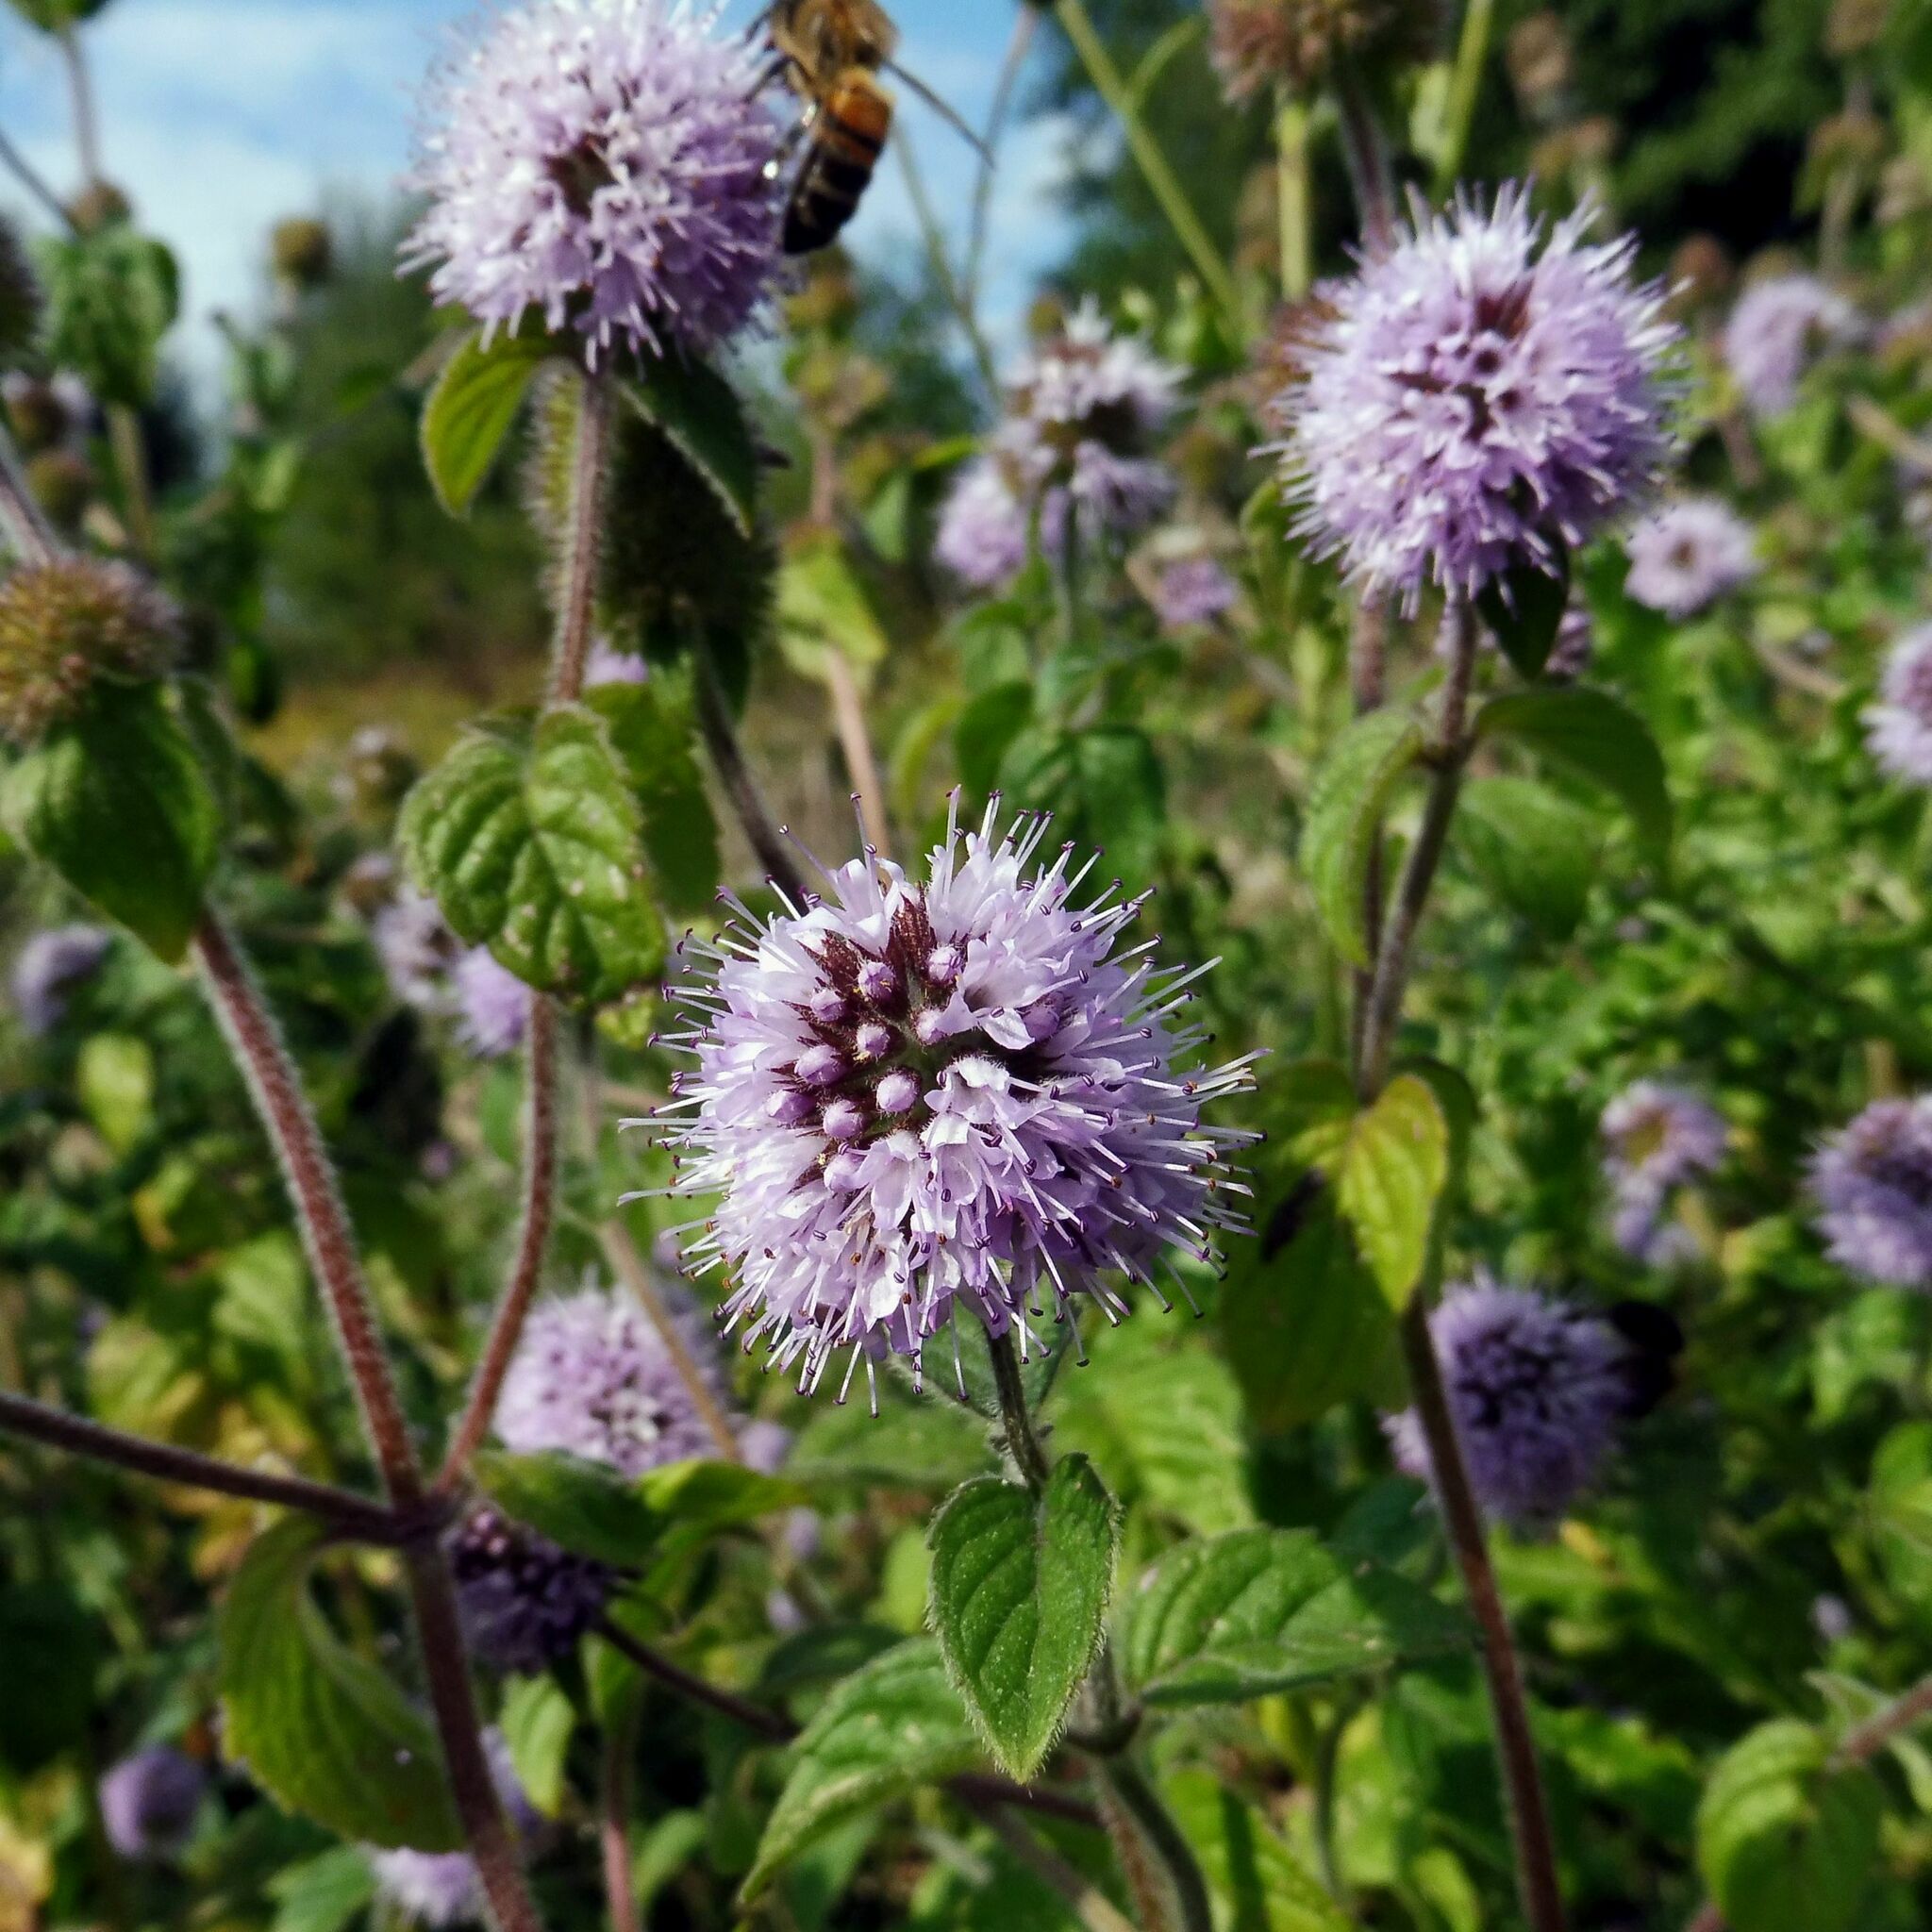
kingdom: Plantae
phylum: Tracheophyta
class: Magnoliopsida
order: Lamiales
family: Lamiaceae
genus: Mentha
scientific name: Mentha aquatica
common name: Water mint
